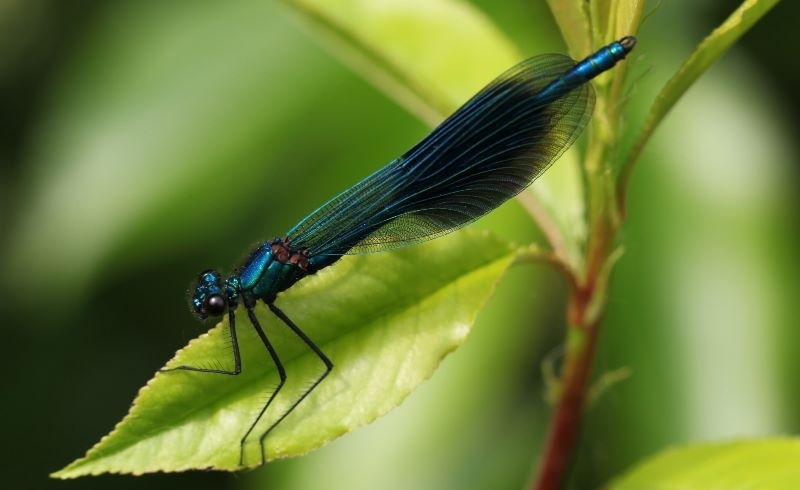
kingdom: Animalia
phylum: Arthropoda
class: Insecta
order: Odonata
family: Calopterygidae
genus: Calopteryx
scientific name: Calopteryx splendens
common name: Banded demoiselle
